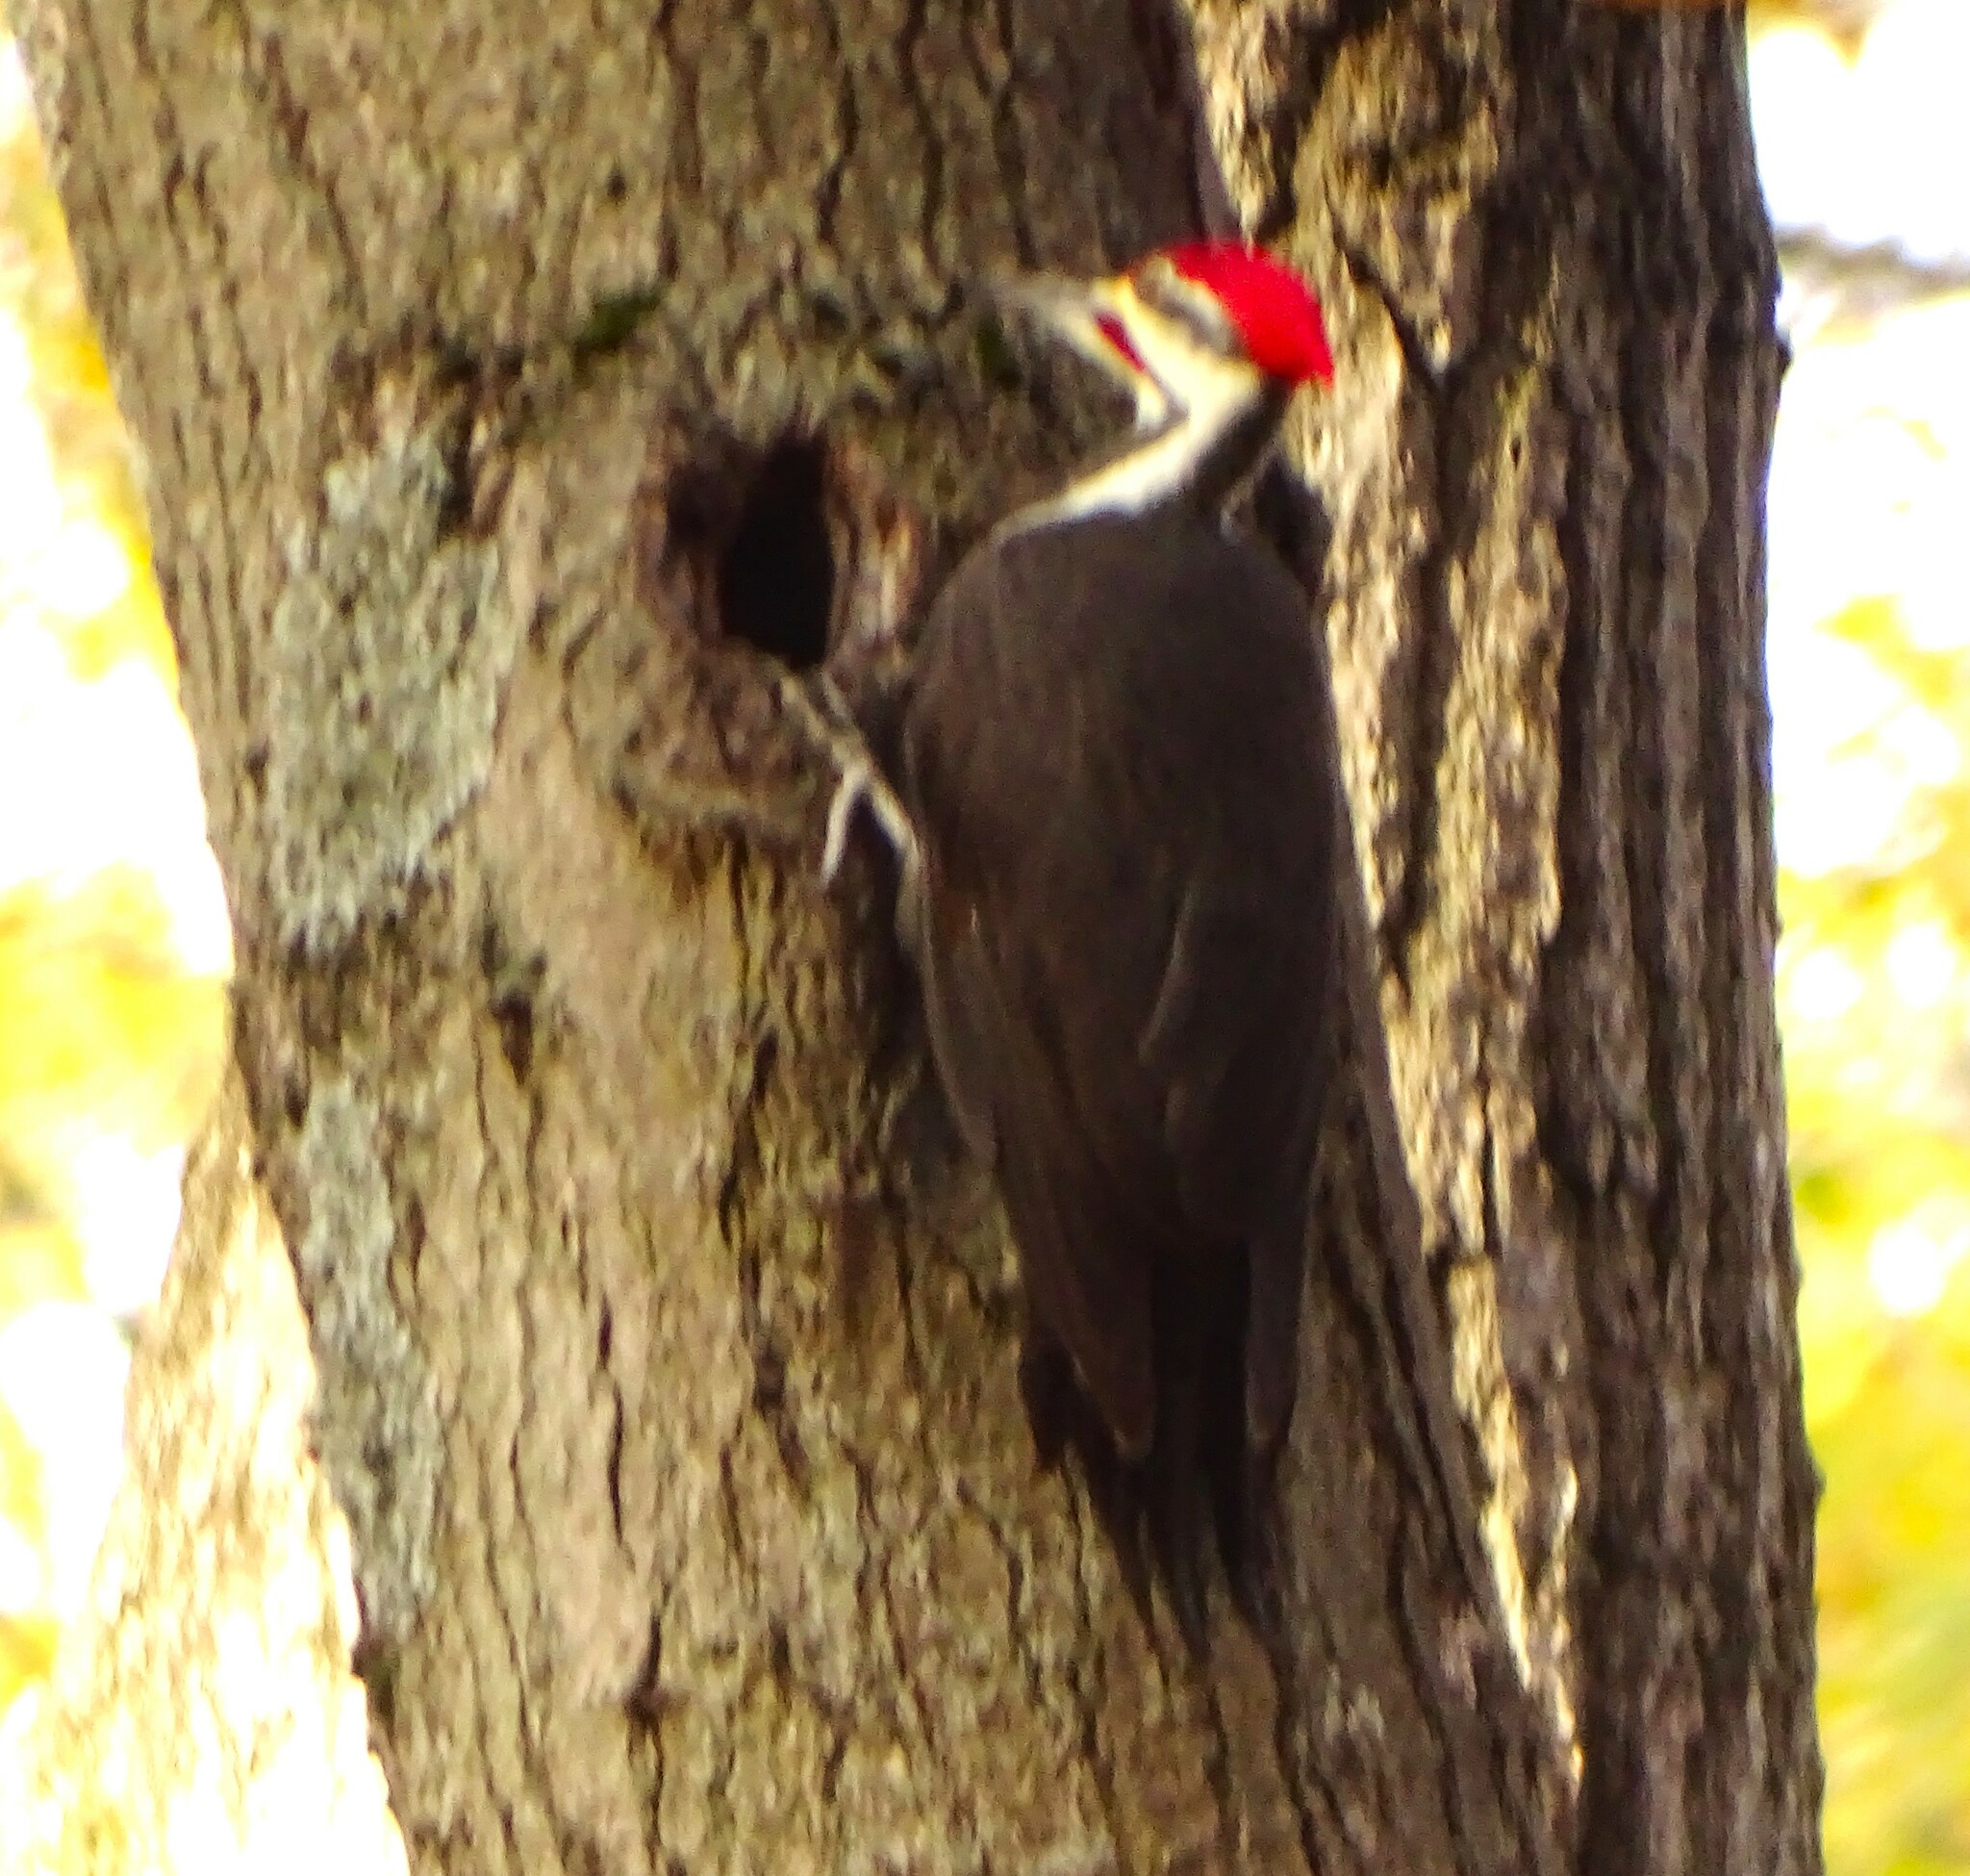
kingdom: Animalia
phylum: Chordata
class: Aves
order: Piciformes
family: Picidae
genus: Dryocopus
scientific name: Dryocopus pileatus
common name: Pileated woodpecker
